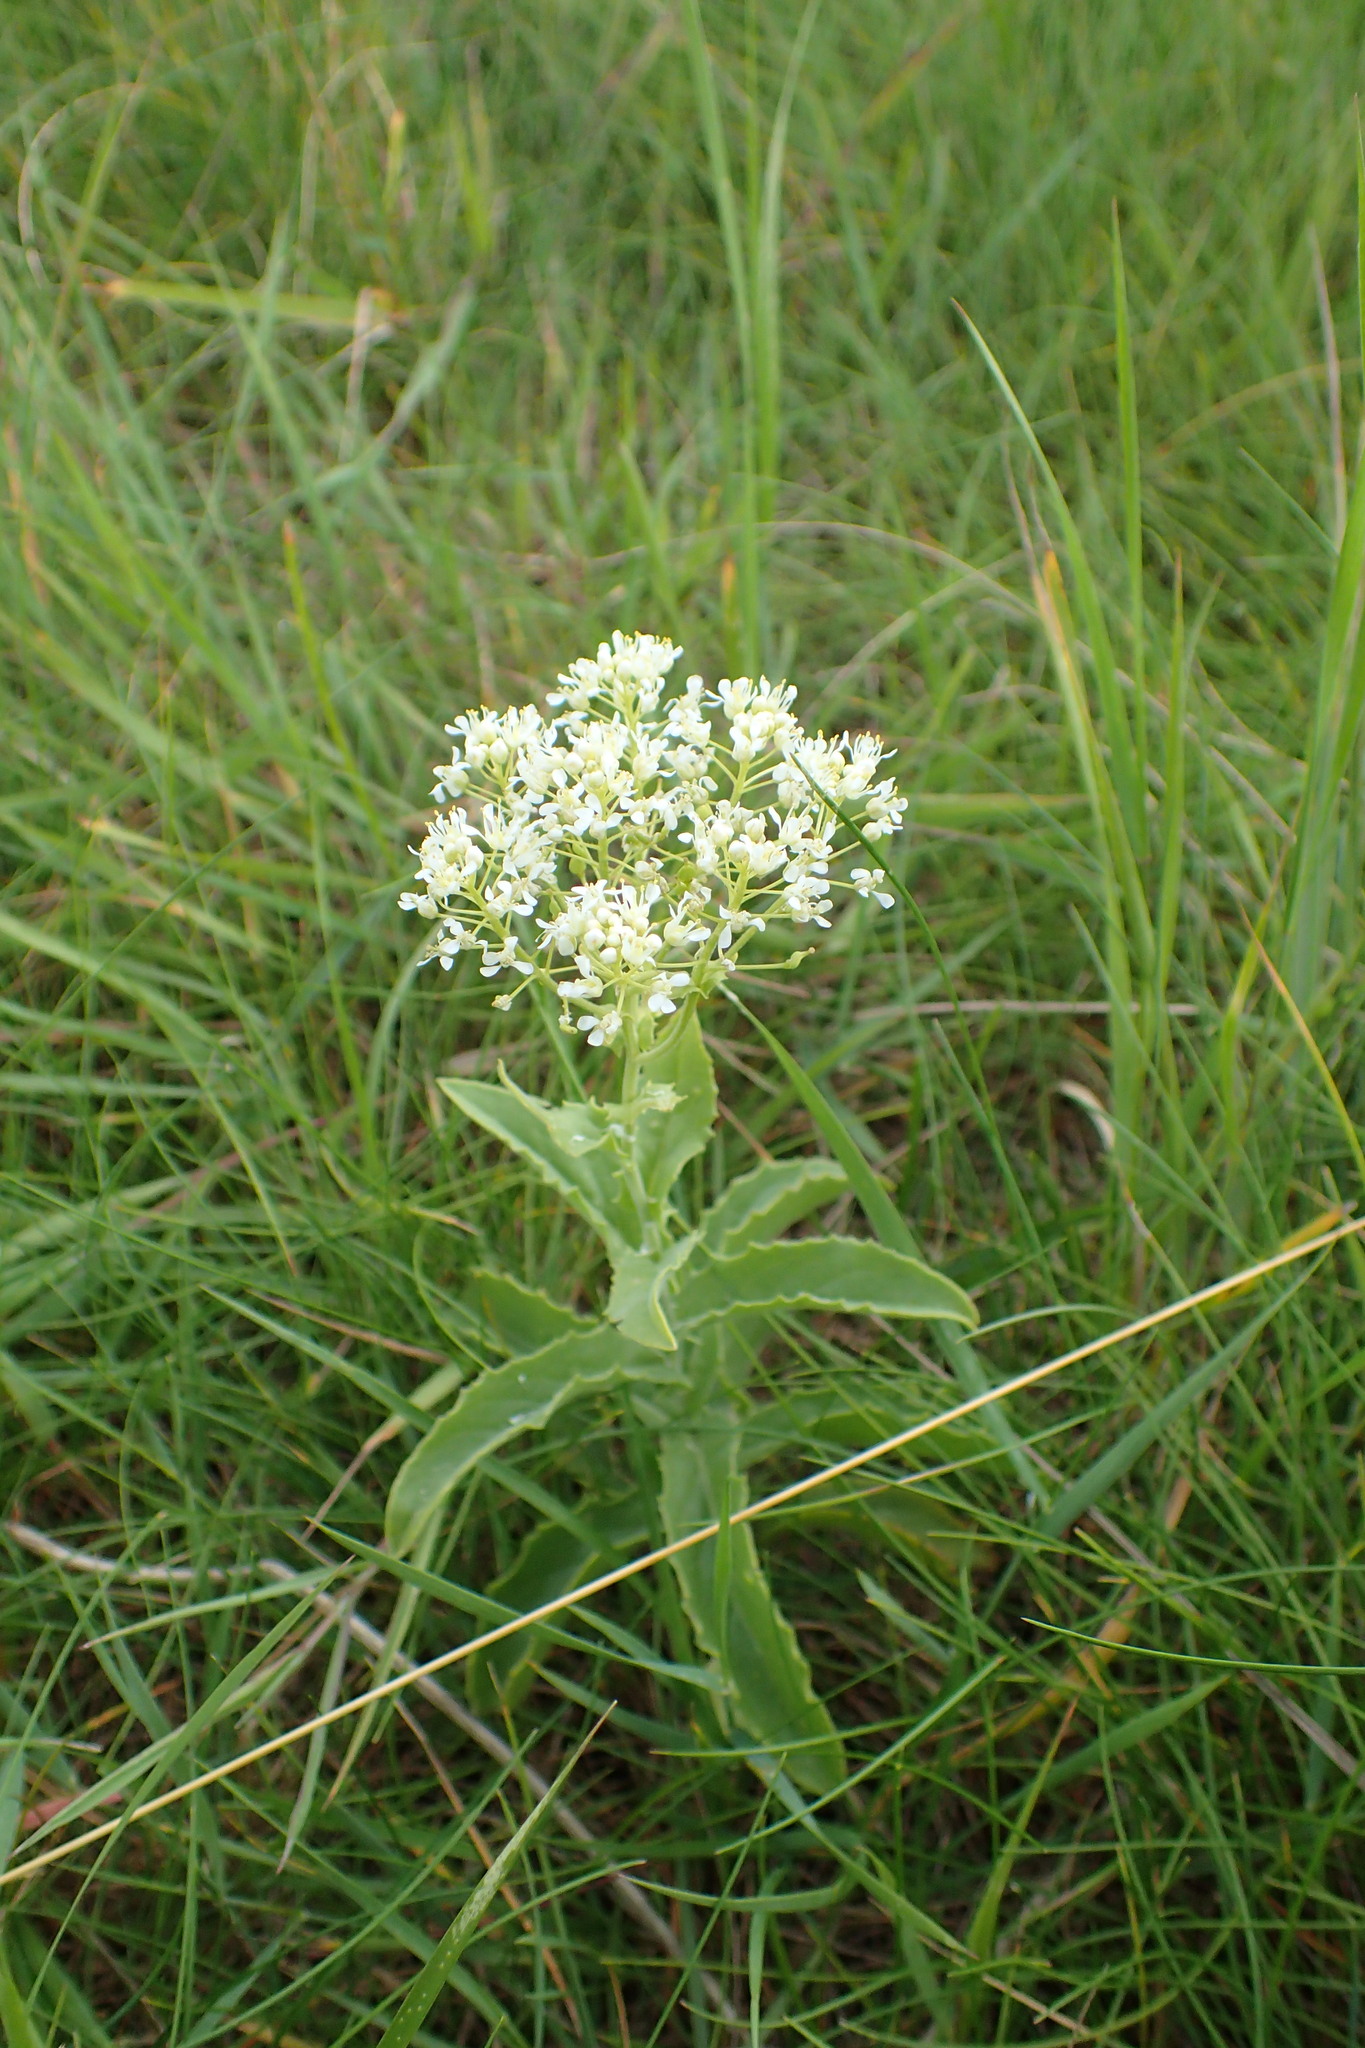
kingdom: Plantae
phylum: Tracheophyta
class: Magnoliopsida
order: Brassicales
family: Brassicaceae
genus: Lepidium
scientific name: Lepidium draba
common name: Hoary cress
